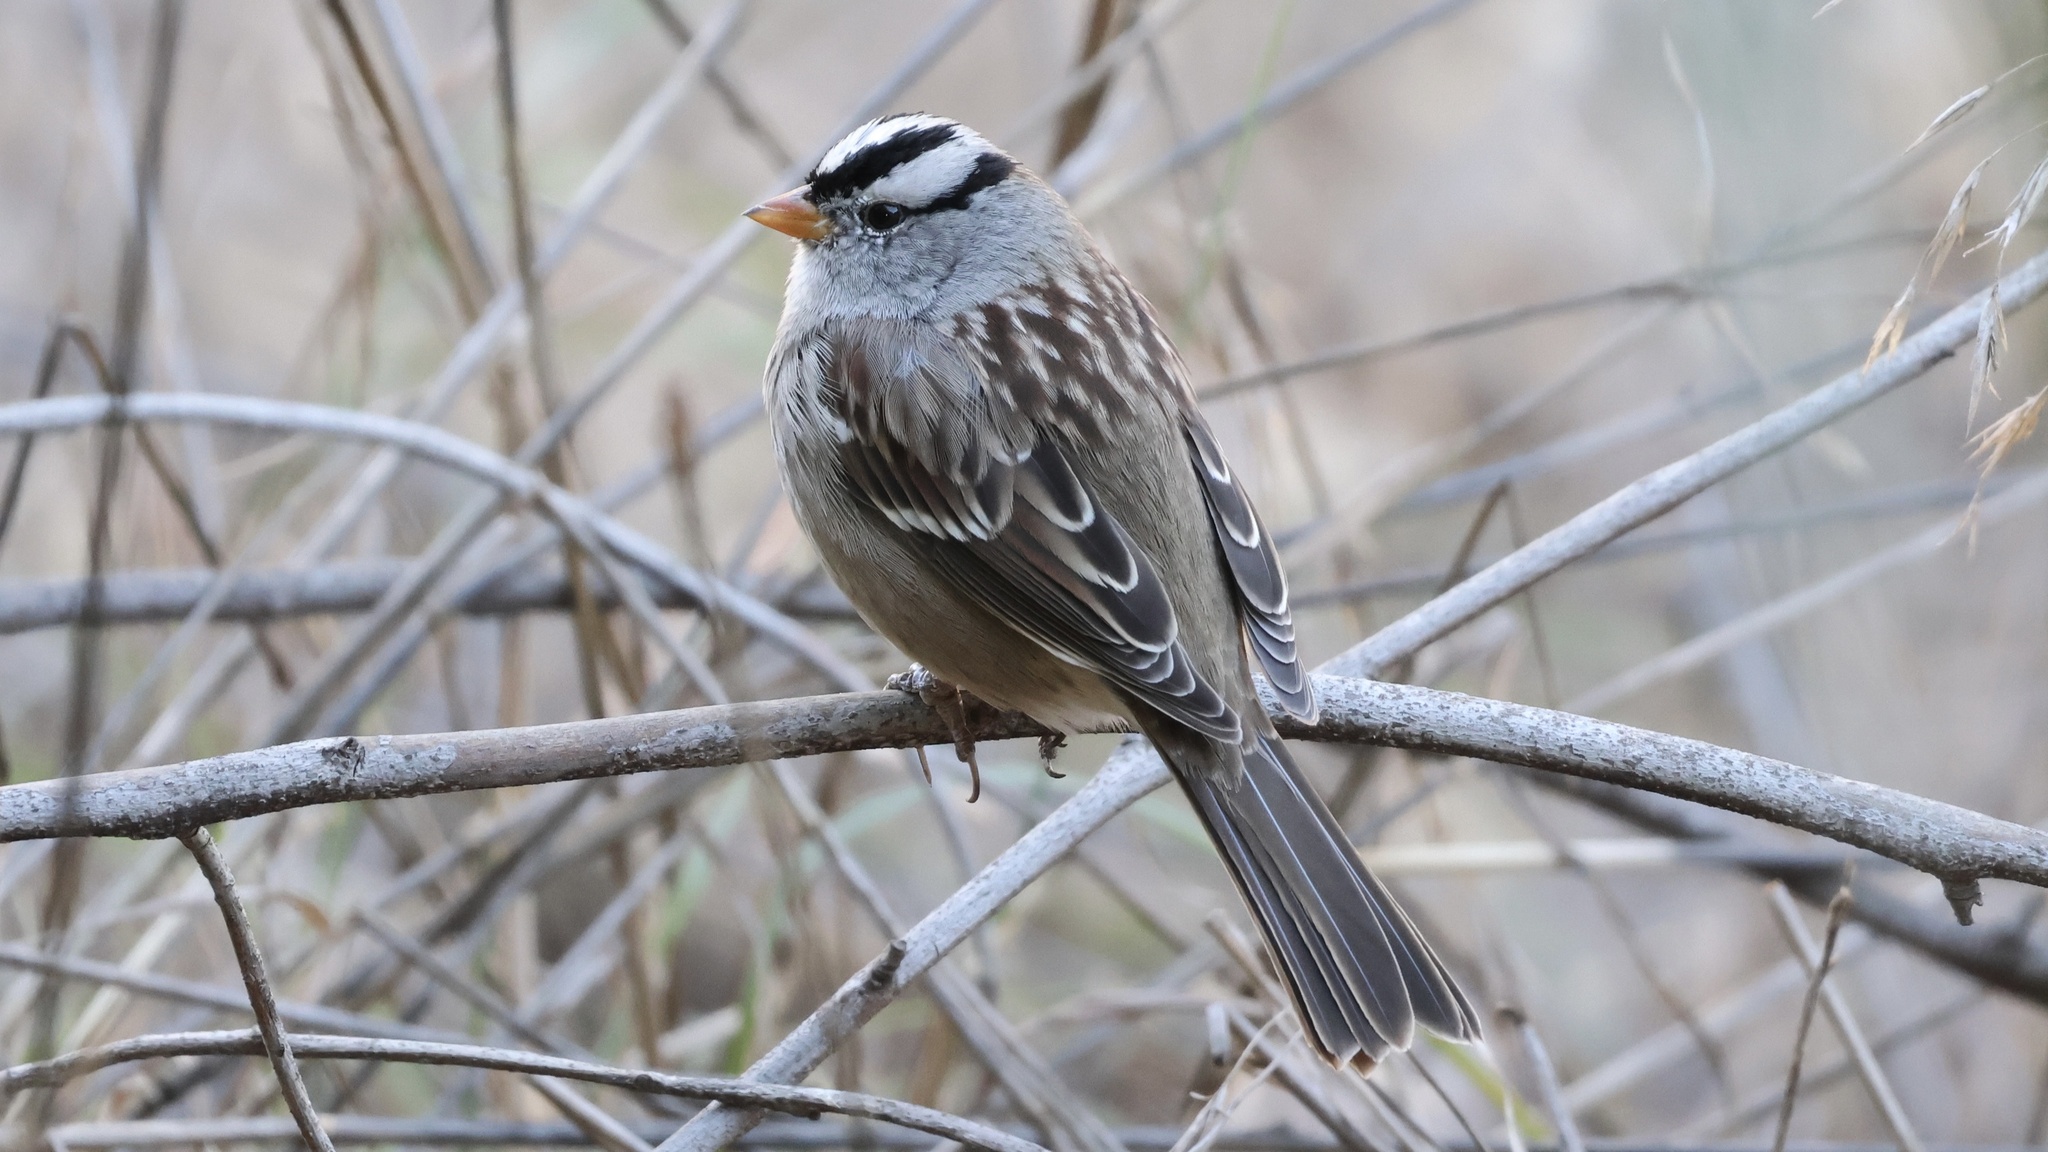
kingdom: Animalia
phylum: Chordata
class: Aves
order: Passeriformes
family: Passerellidae
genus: Zonotrichia
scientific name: Zonotrichia leucophrys
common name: White-crowned sparrow
